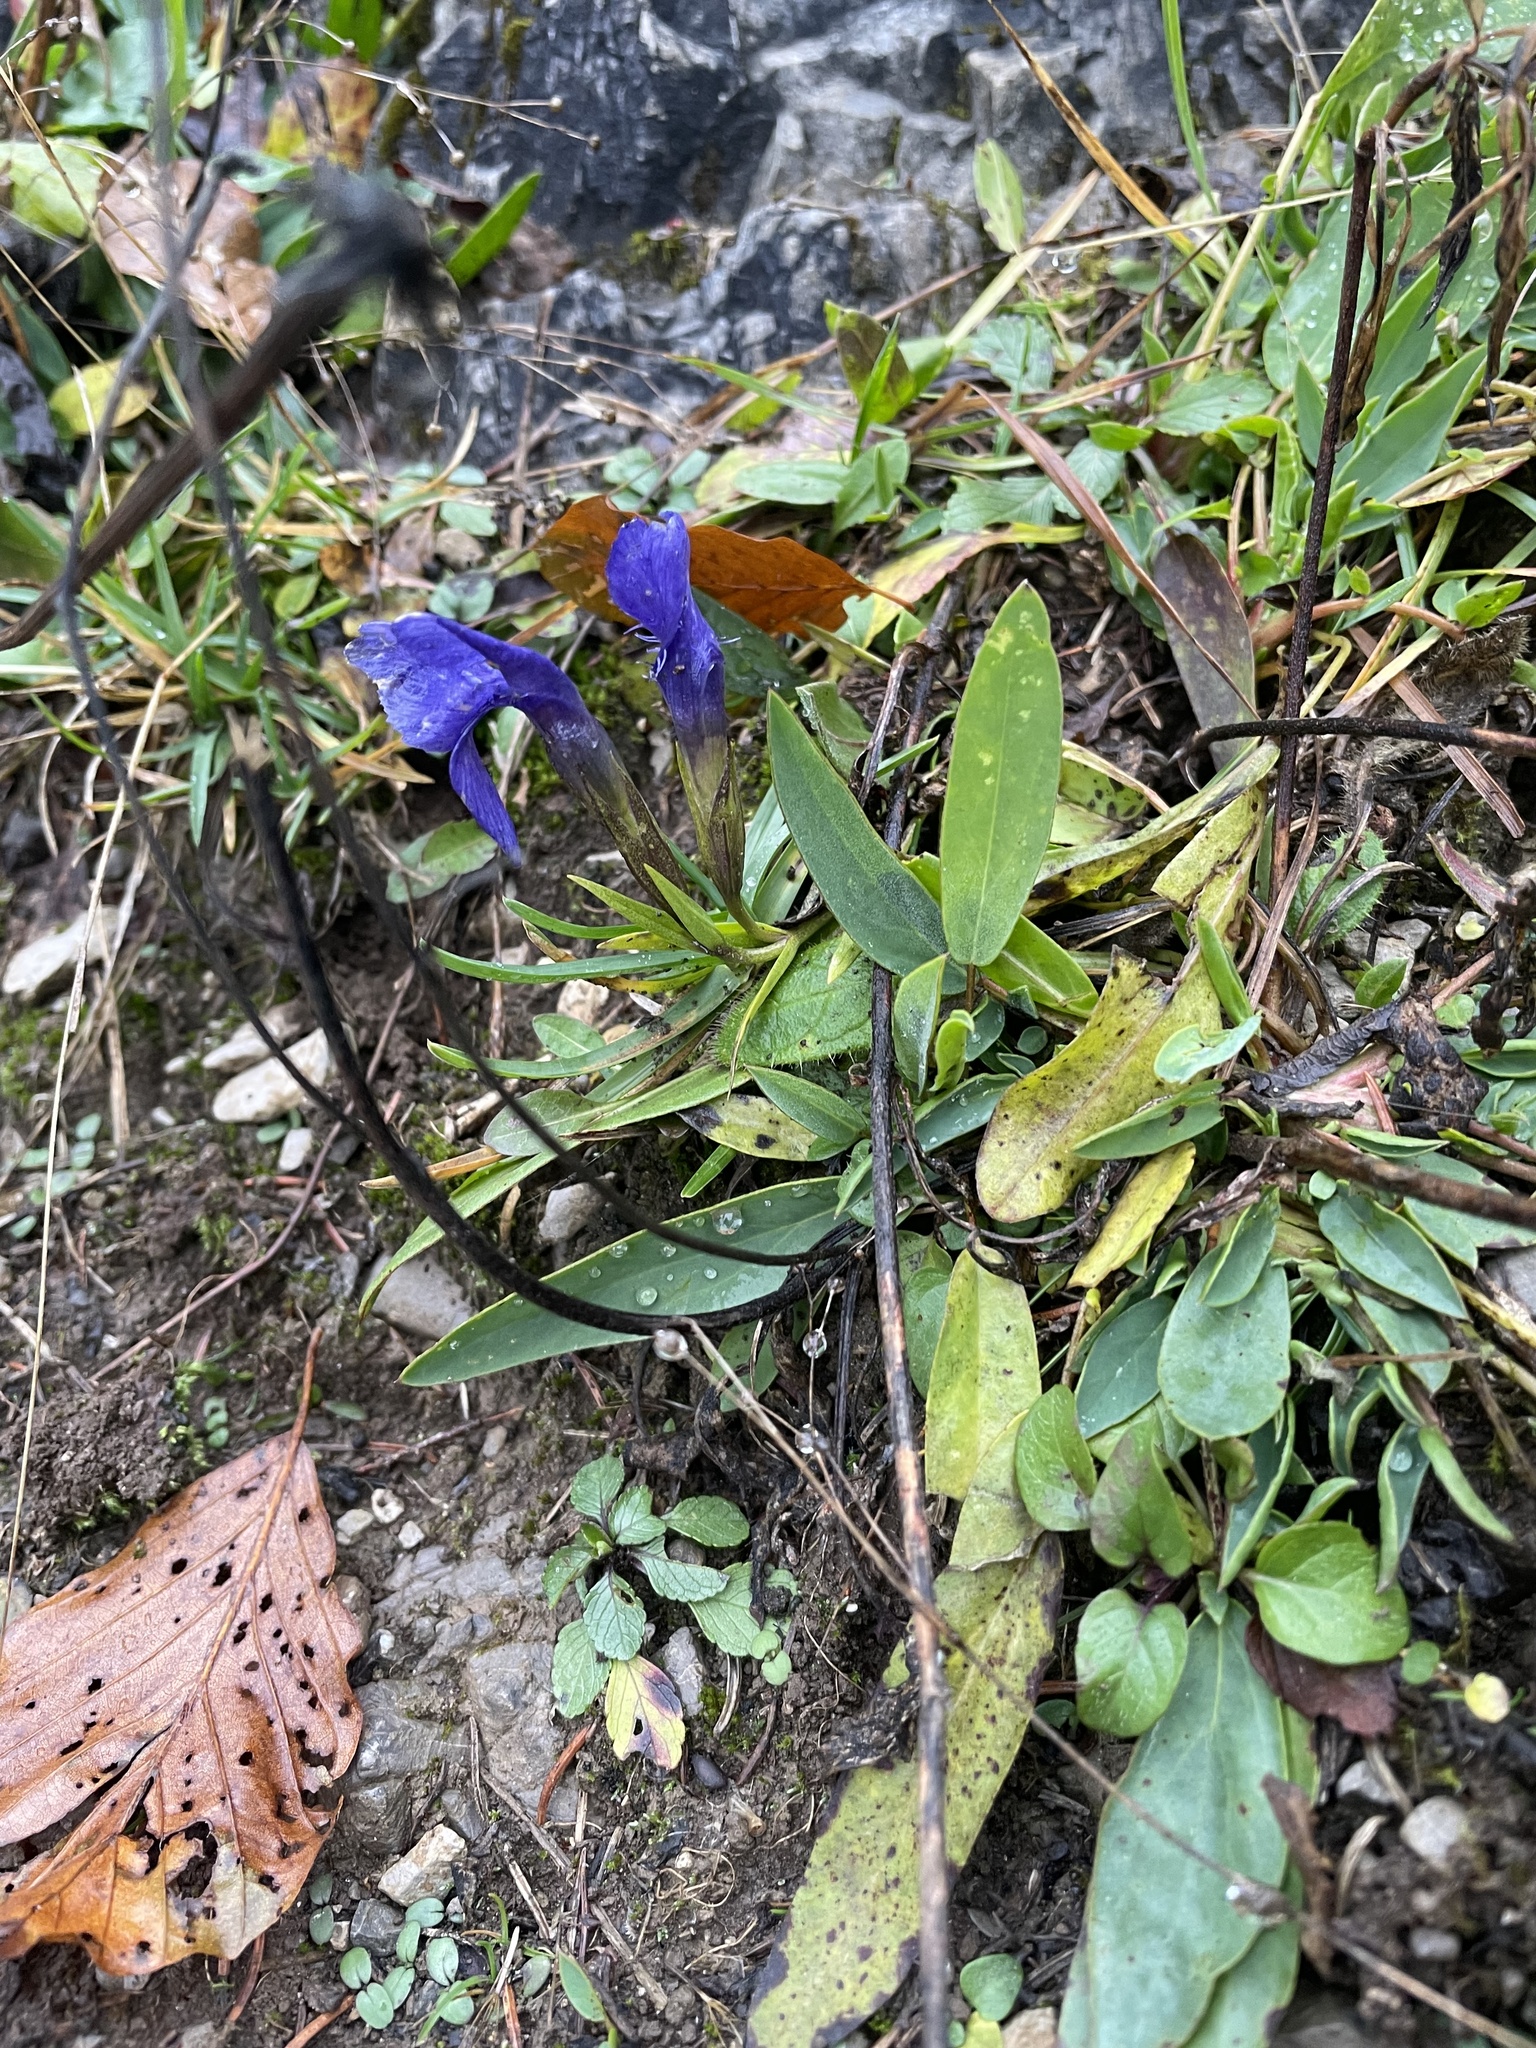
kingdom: Plantae
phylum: Tracheophyta
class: Magnoliopsida
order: Gentianales
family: Gentianaceae
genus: Gentianopsis
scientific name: Gentianopsis ciliata
